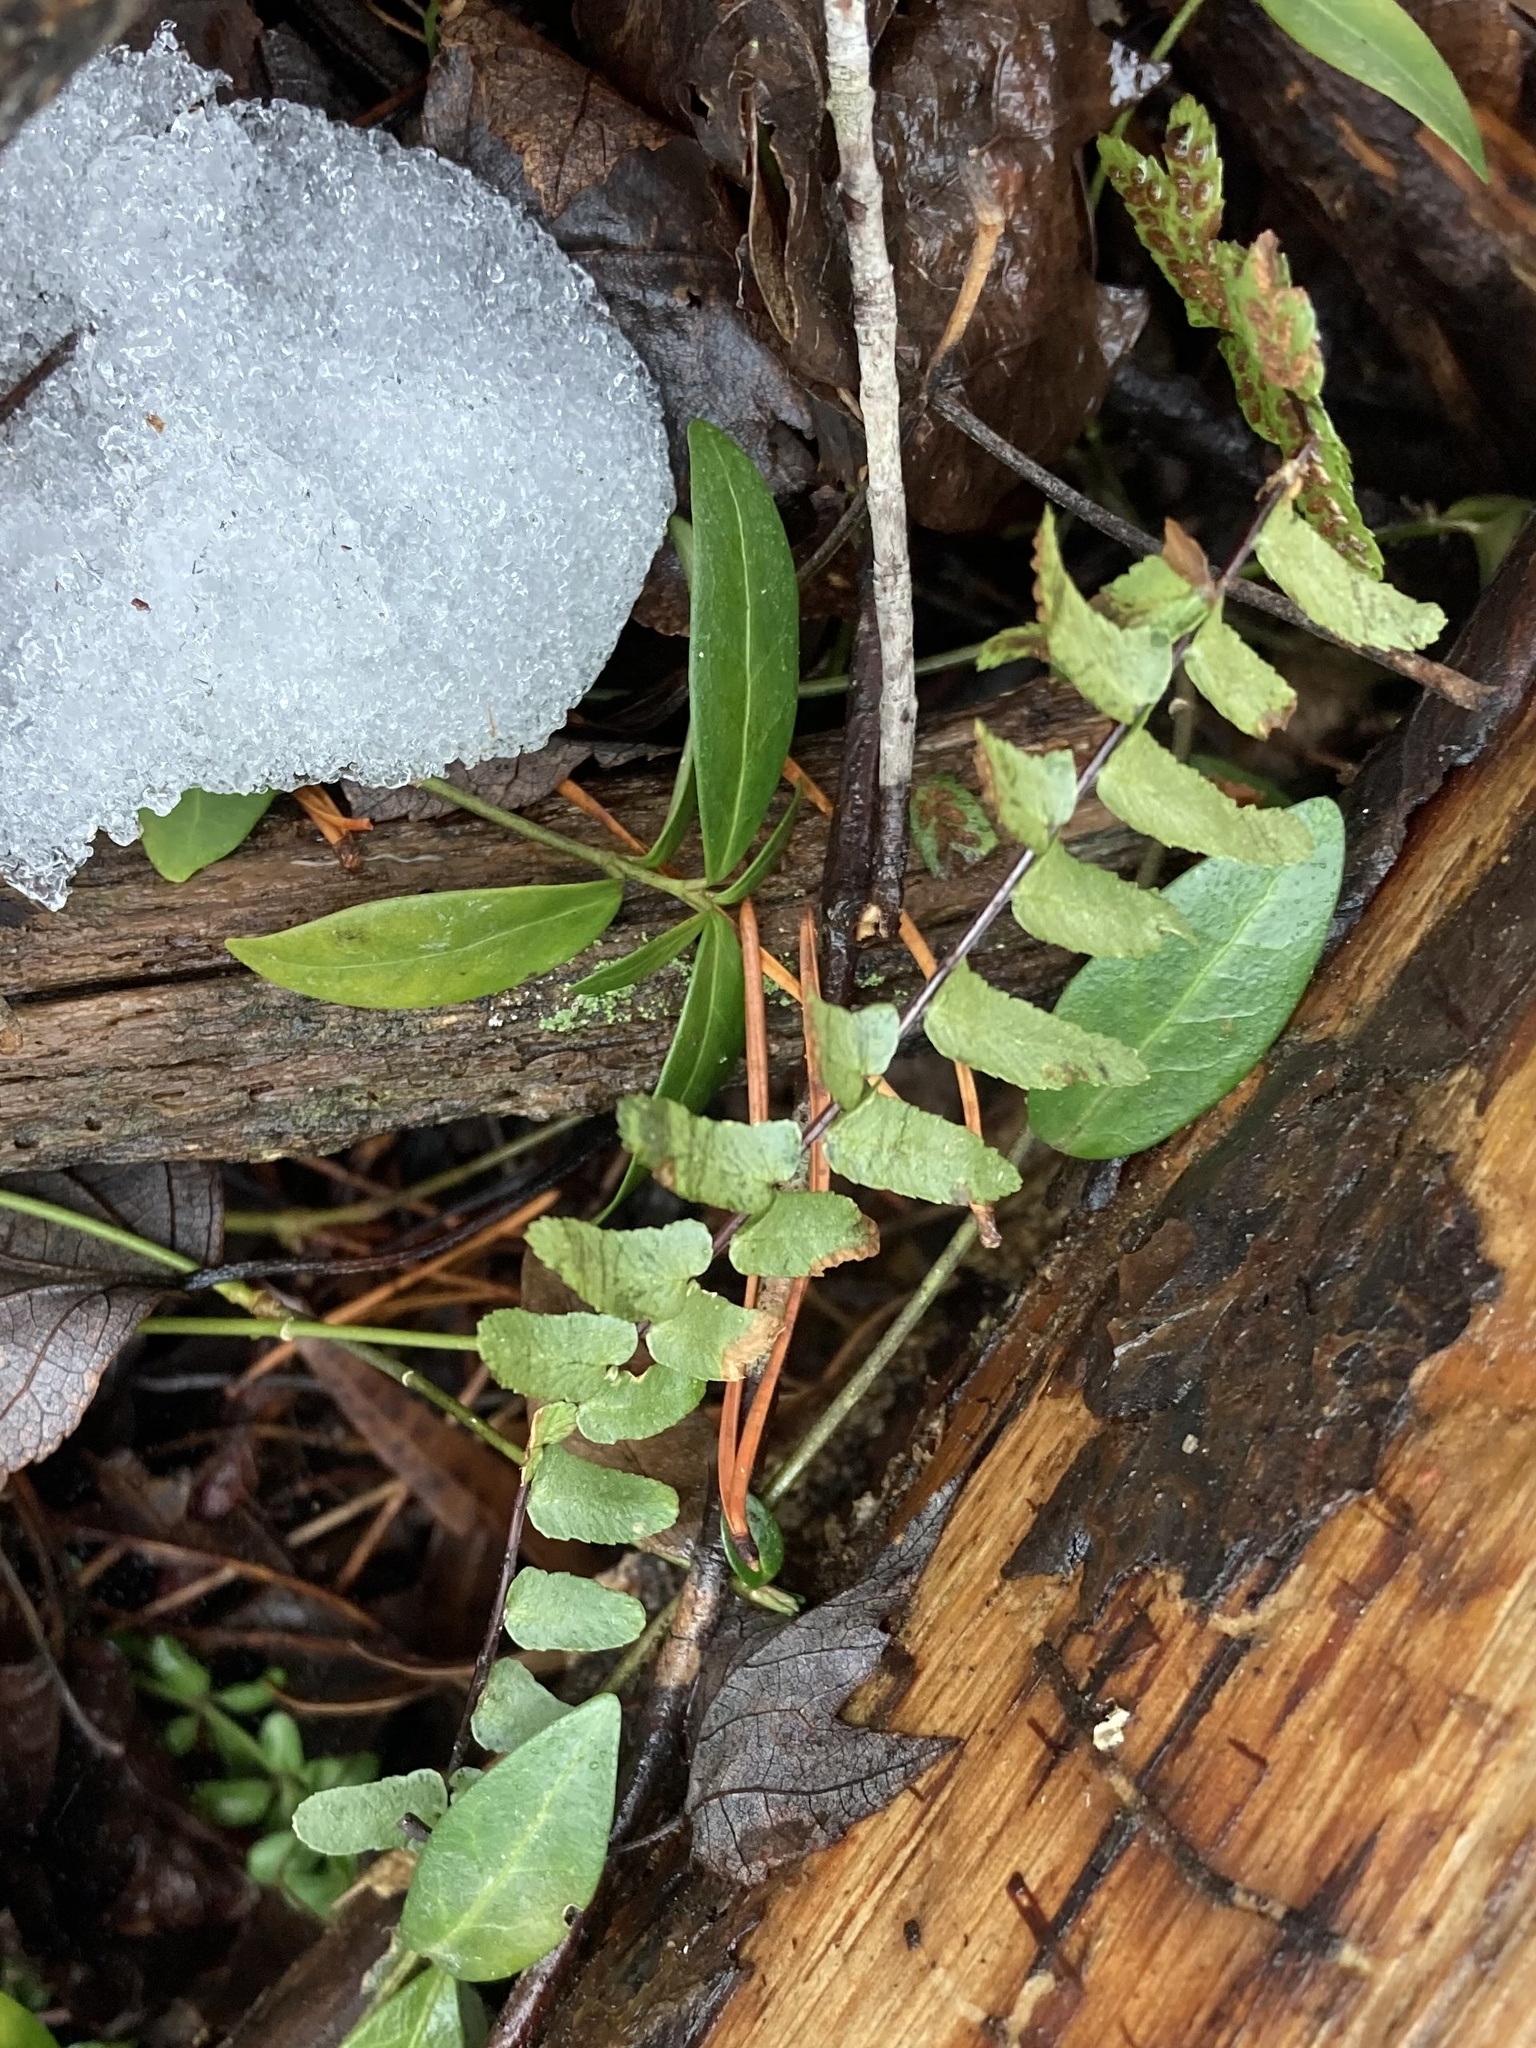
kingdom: Plantae
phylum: Tracheophyta
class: Polypodiopsida
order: Polypodiales
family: Aspleniaceae
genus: Asplenium
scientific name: Asplenium platyneuron
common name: Ebony spleenwort
